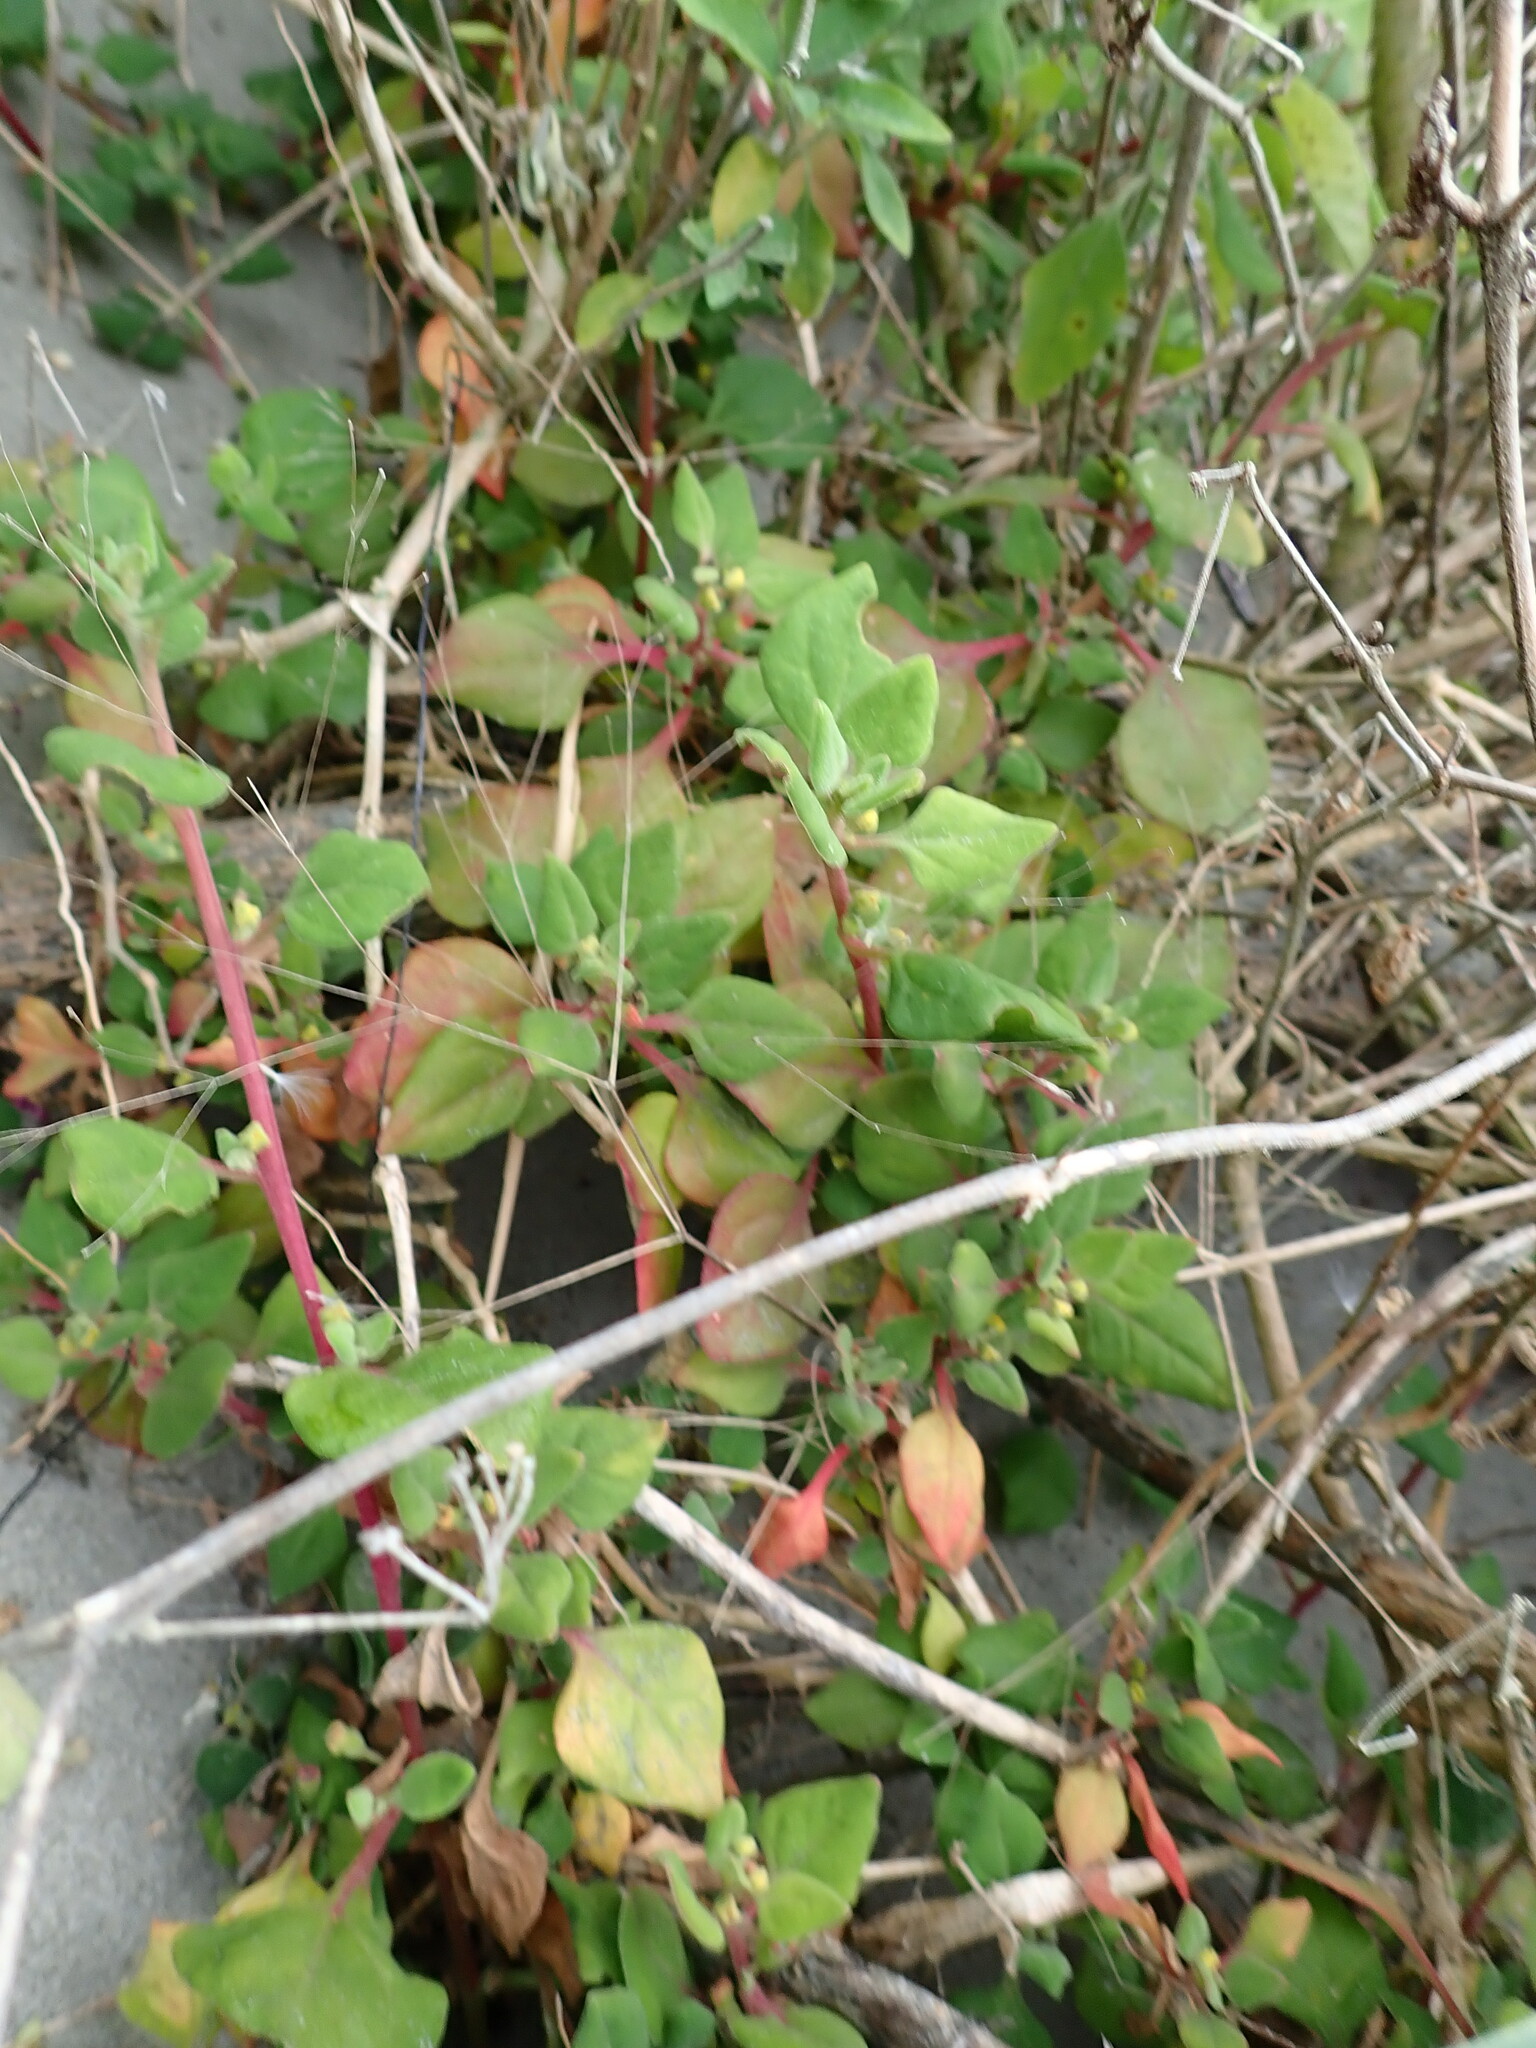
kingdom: Plantae
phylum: Tracheophyta
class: Magnoliopsida
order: Caryophyllales
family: Aizoaceae
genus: Tetragonia
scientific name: Tetragonia implexicoma
